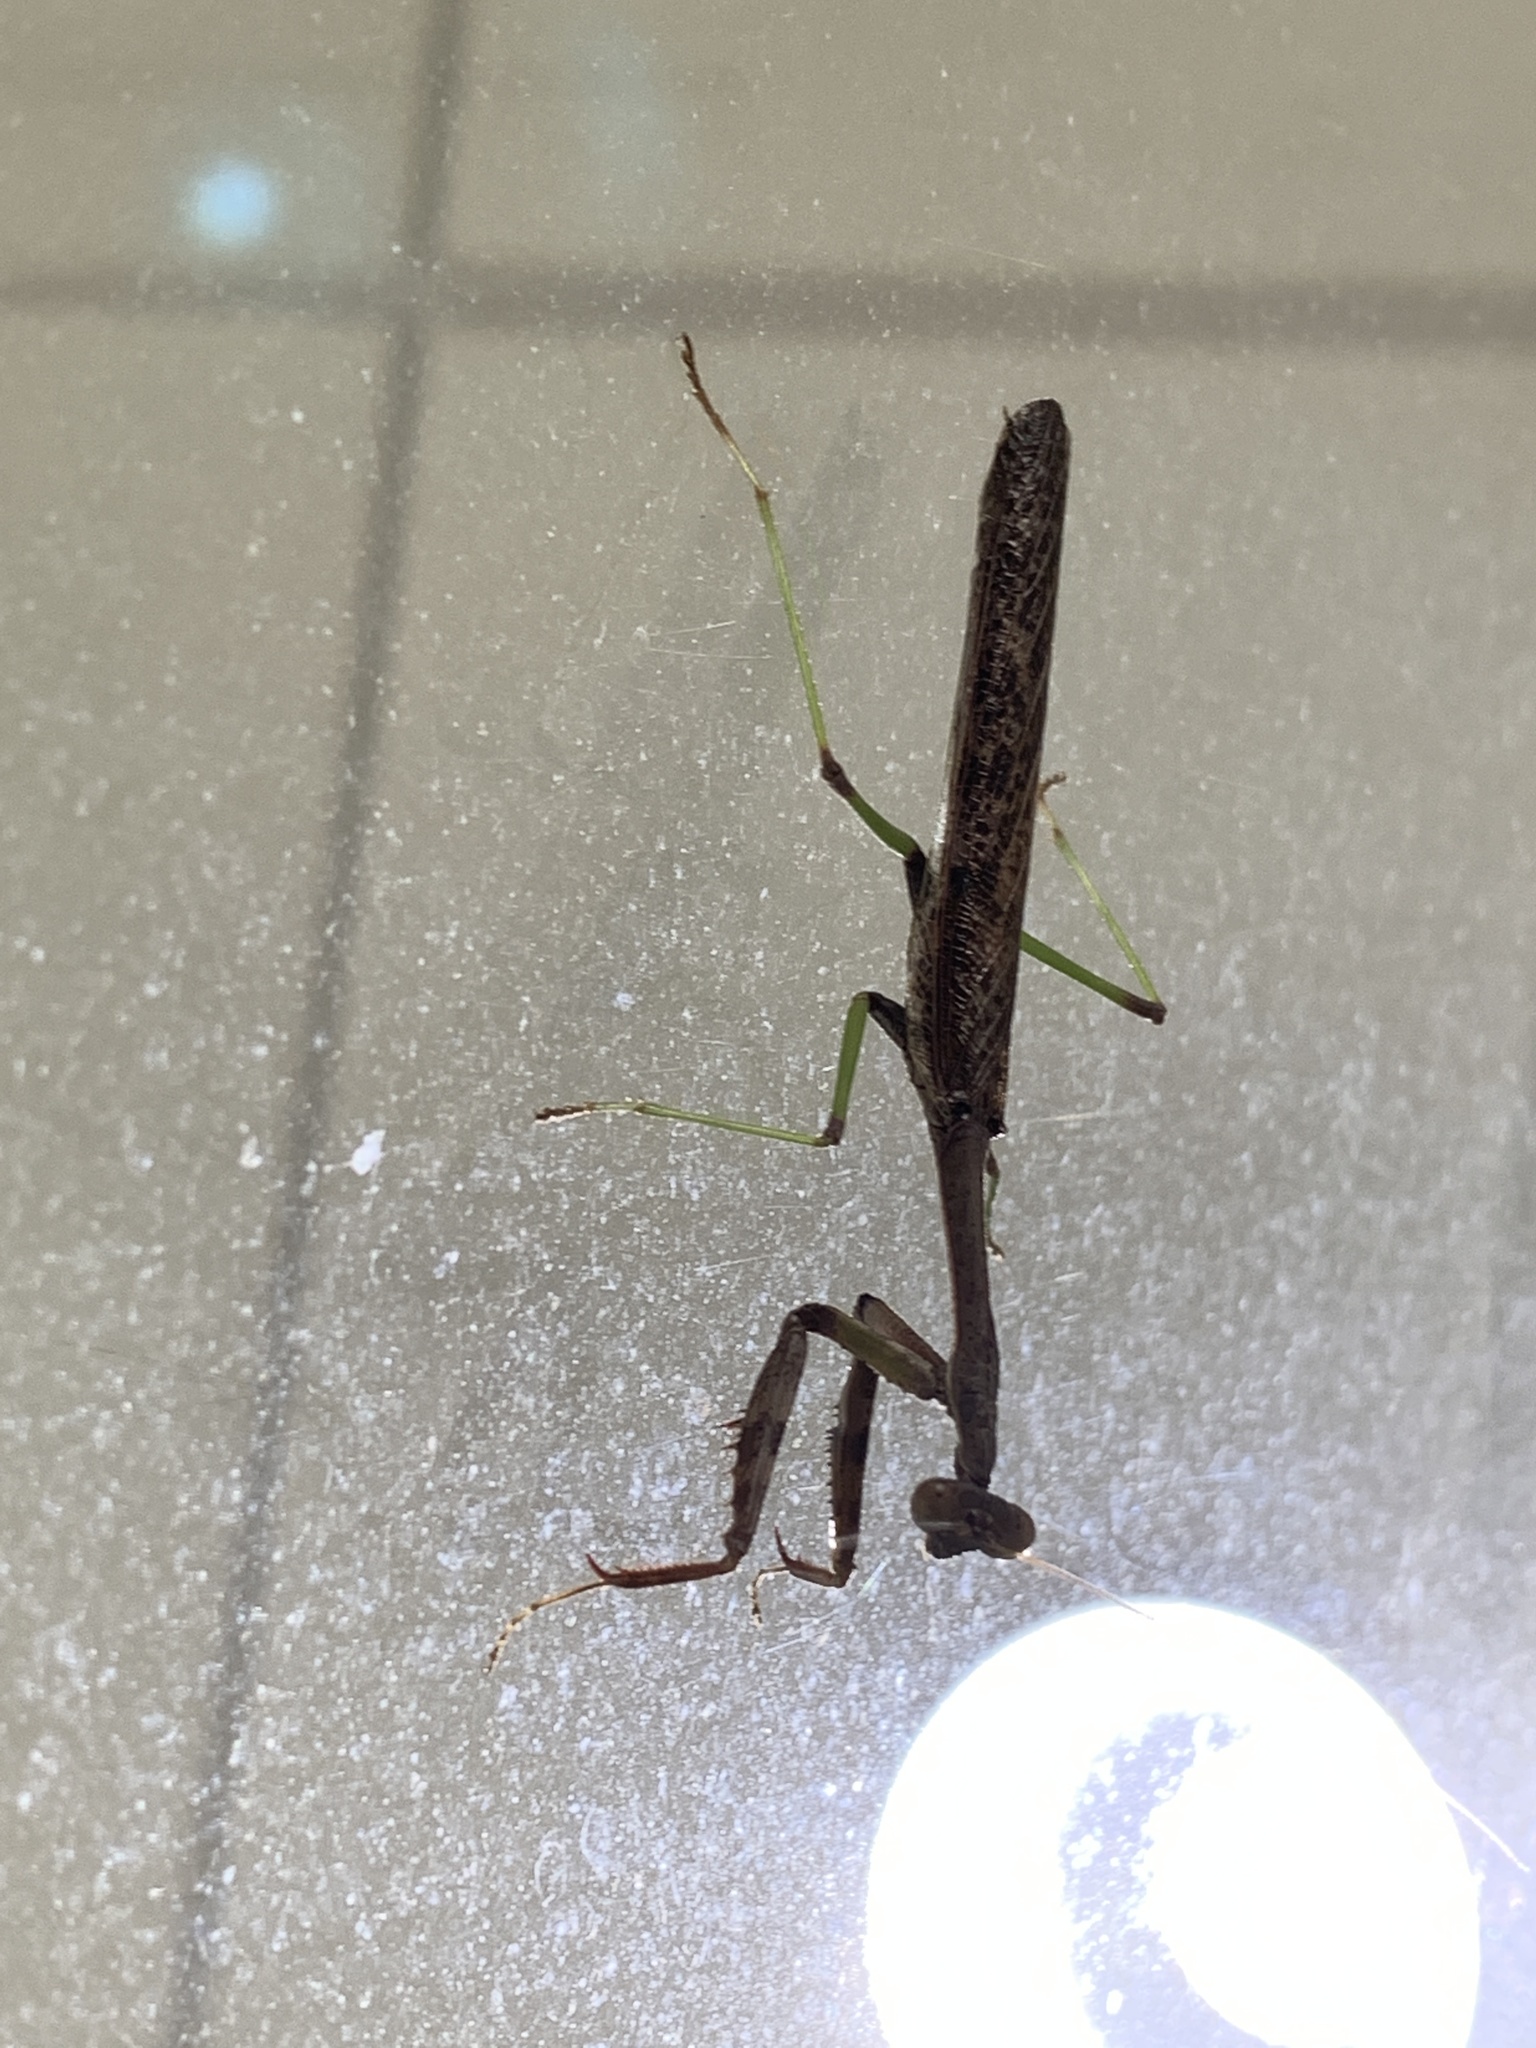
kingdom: Animalia
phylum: Arthropoda
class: Insecta
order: Mantodea
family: Mantidae
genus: Stagmomantis
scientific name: Stagmomantis carolina
